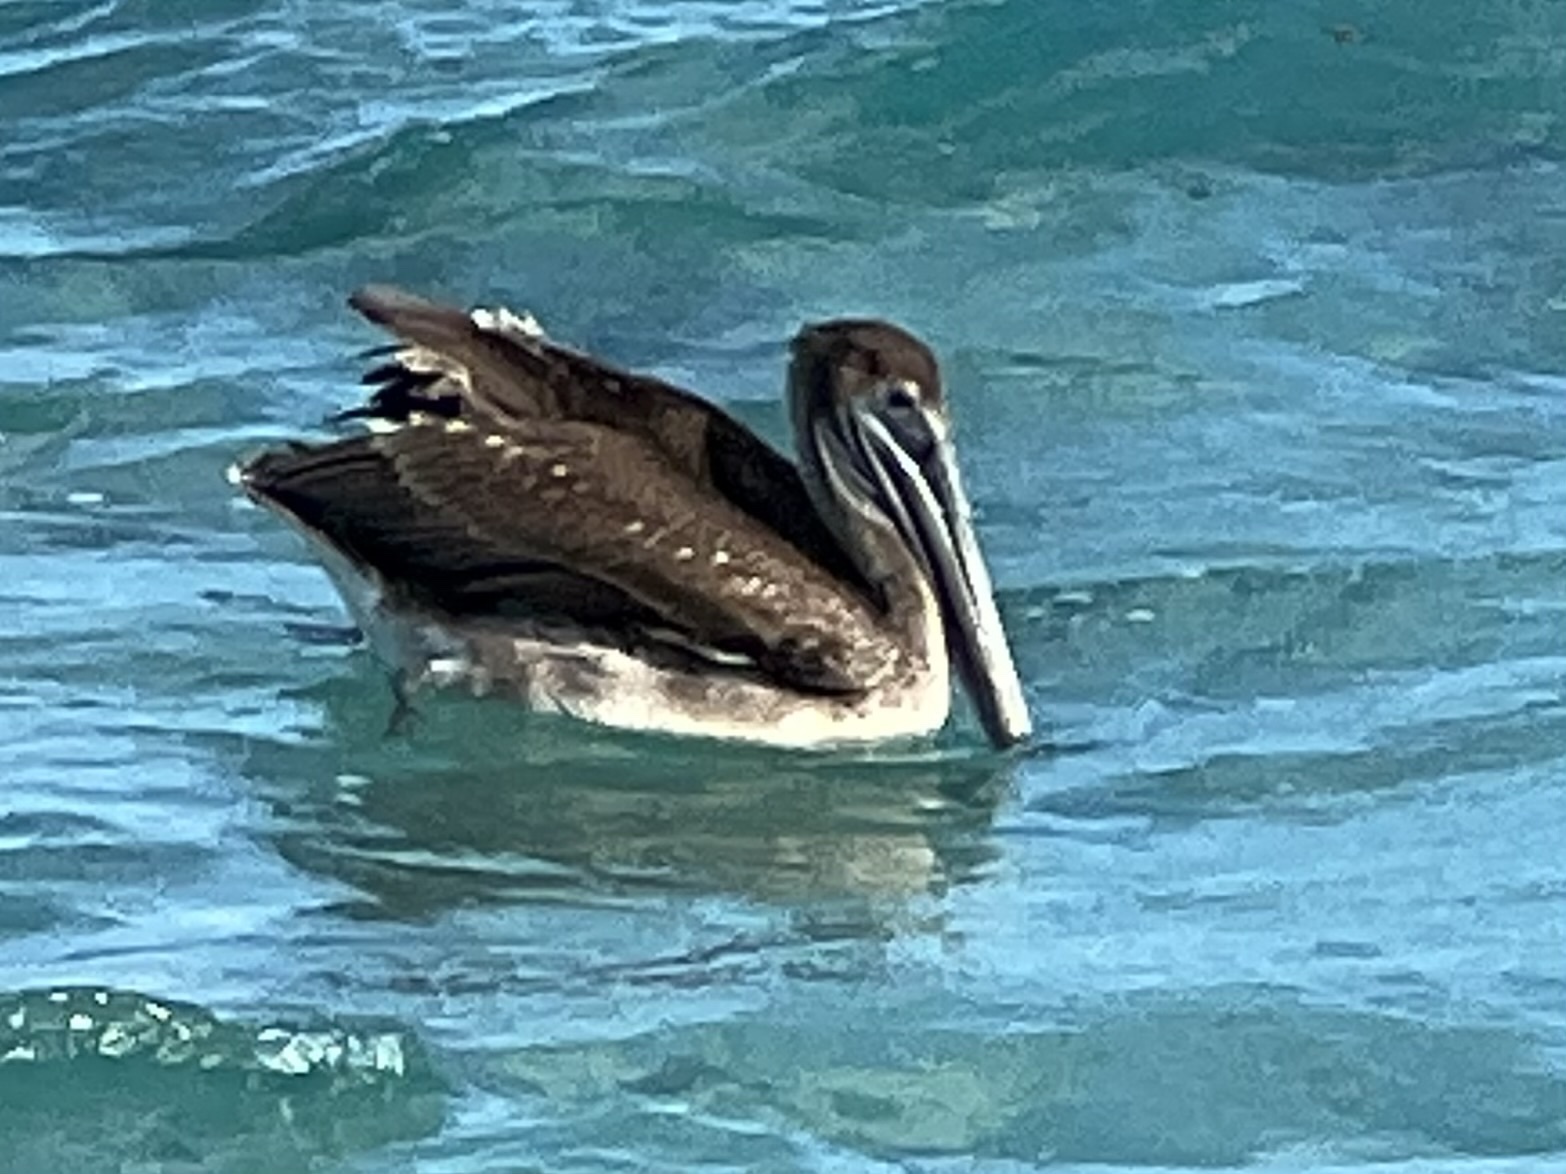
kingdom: Animalia
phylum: Chordata
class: Aves
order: Pelecaniformes
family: Pelecanidae
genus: Pelecanus
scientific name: Pelecanus occidentalis
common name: Brown pelican
